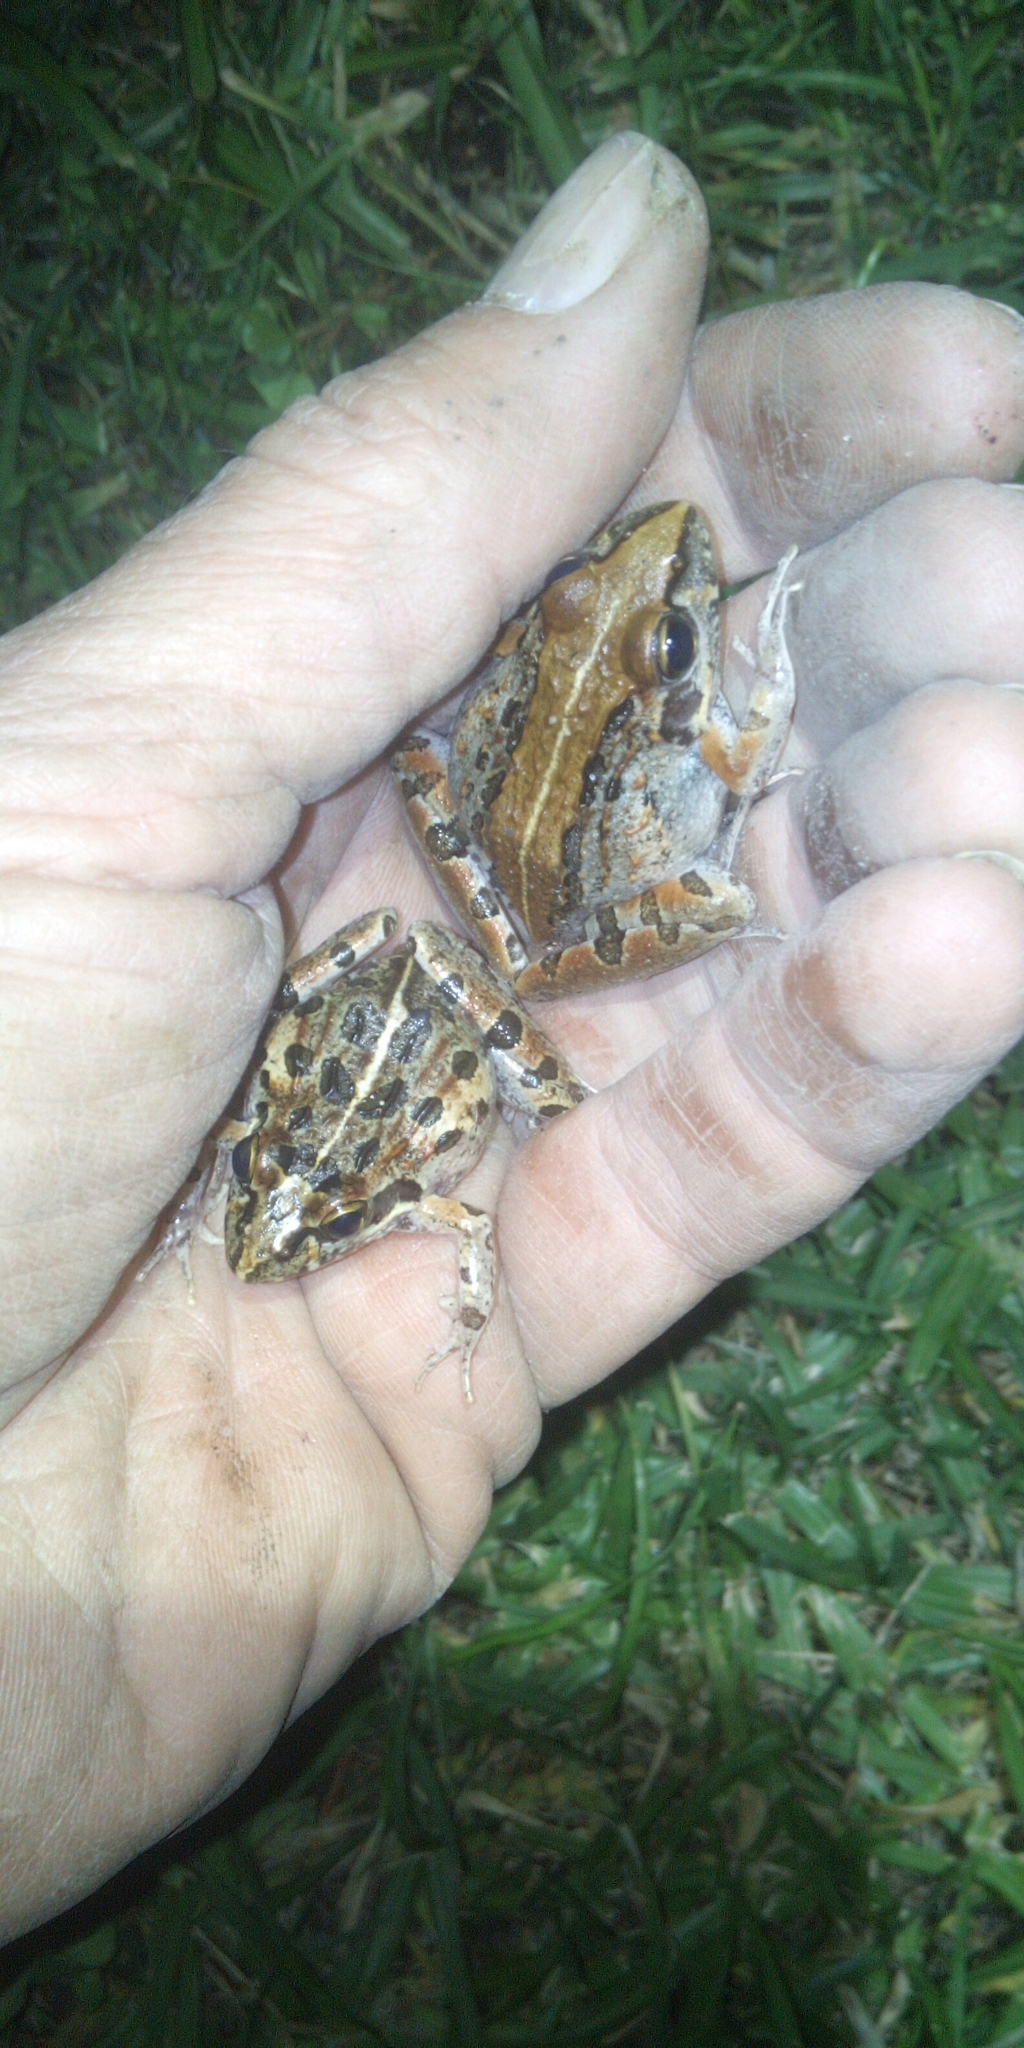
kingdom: Animalia
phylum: Chordata
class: Amphibia
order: Anura
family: Pyxicephalidae
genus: Strongylopus
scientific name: Strongylopus grayii
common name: Gray's stream frog
